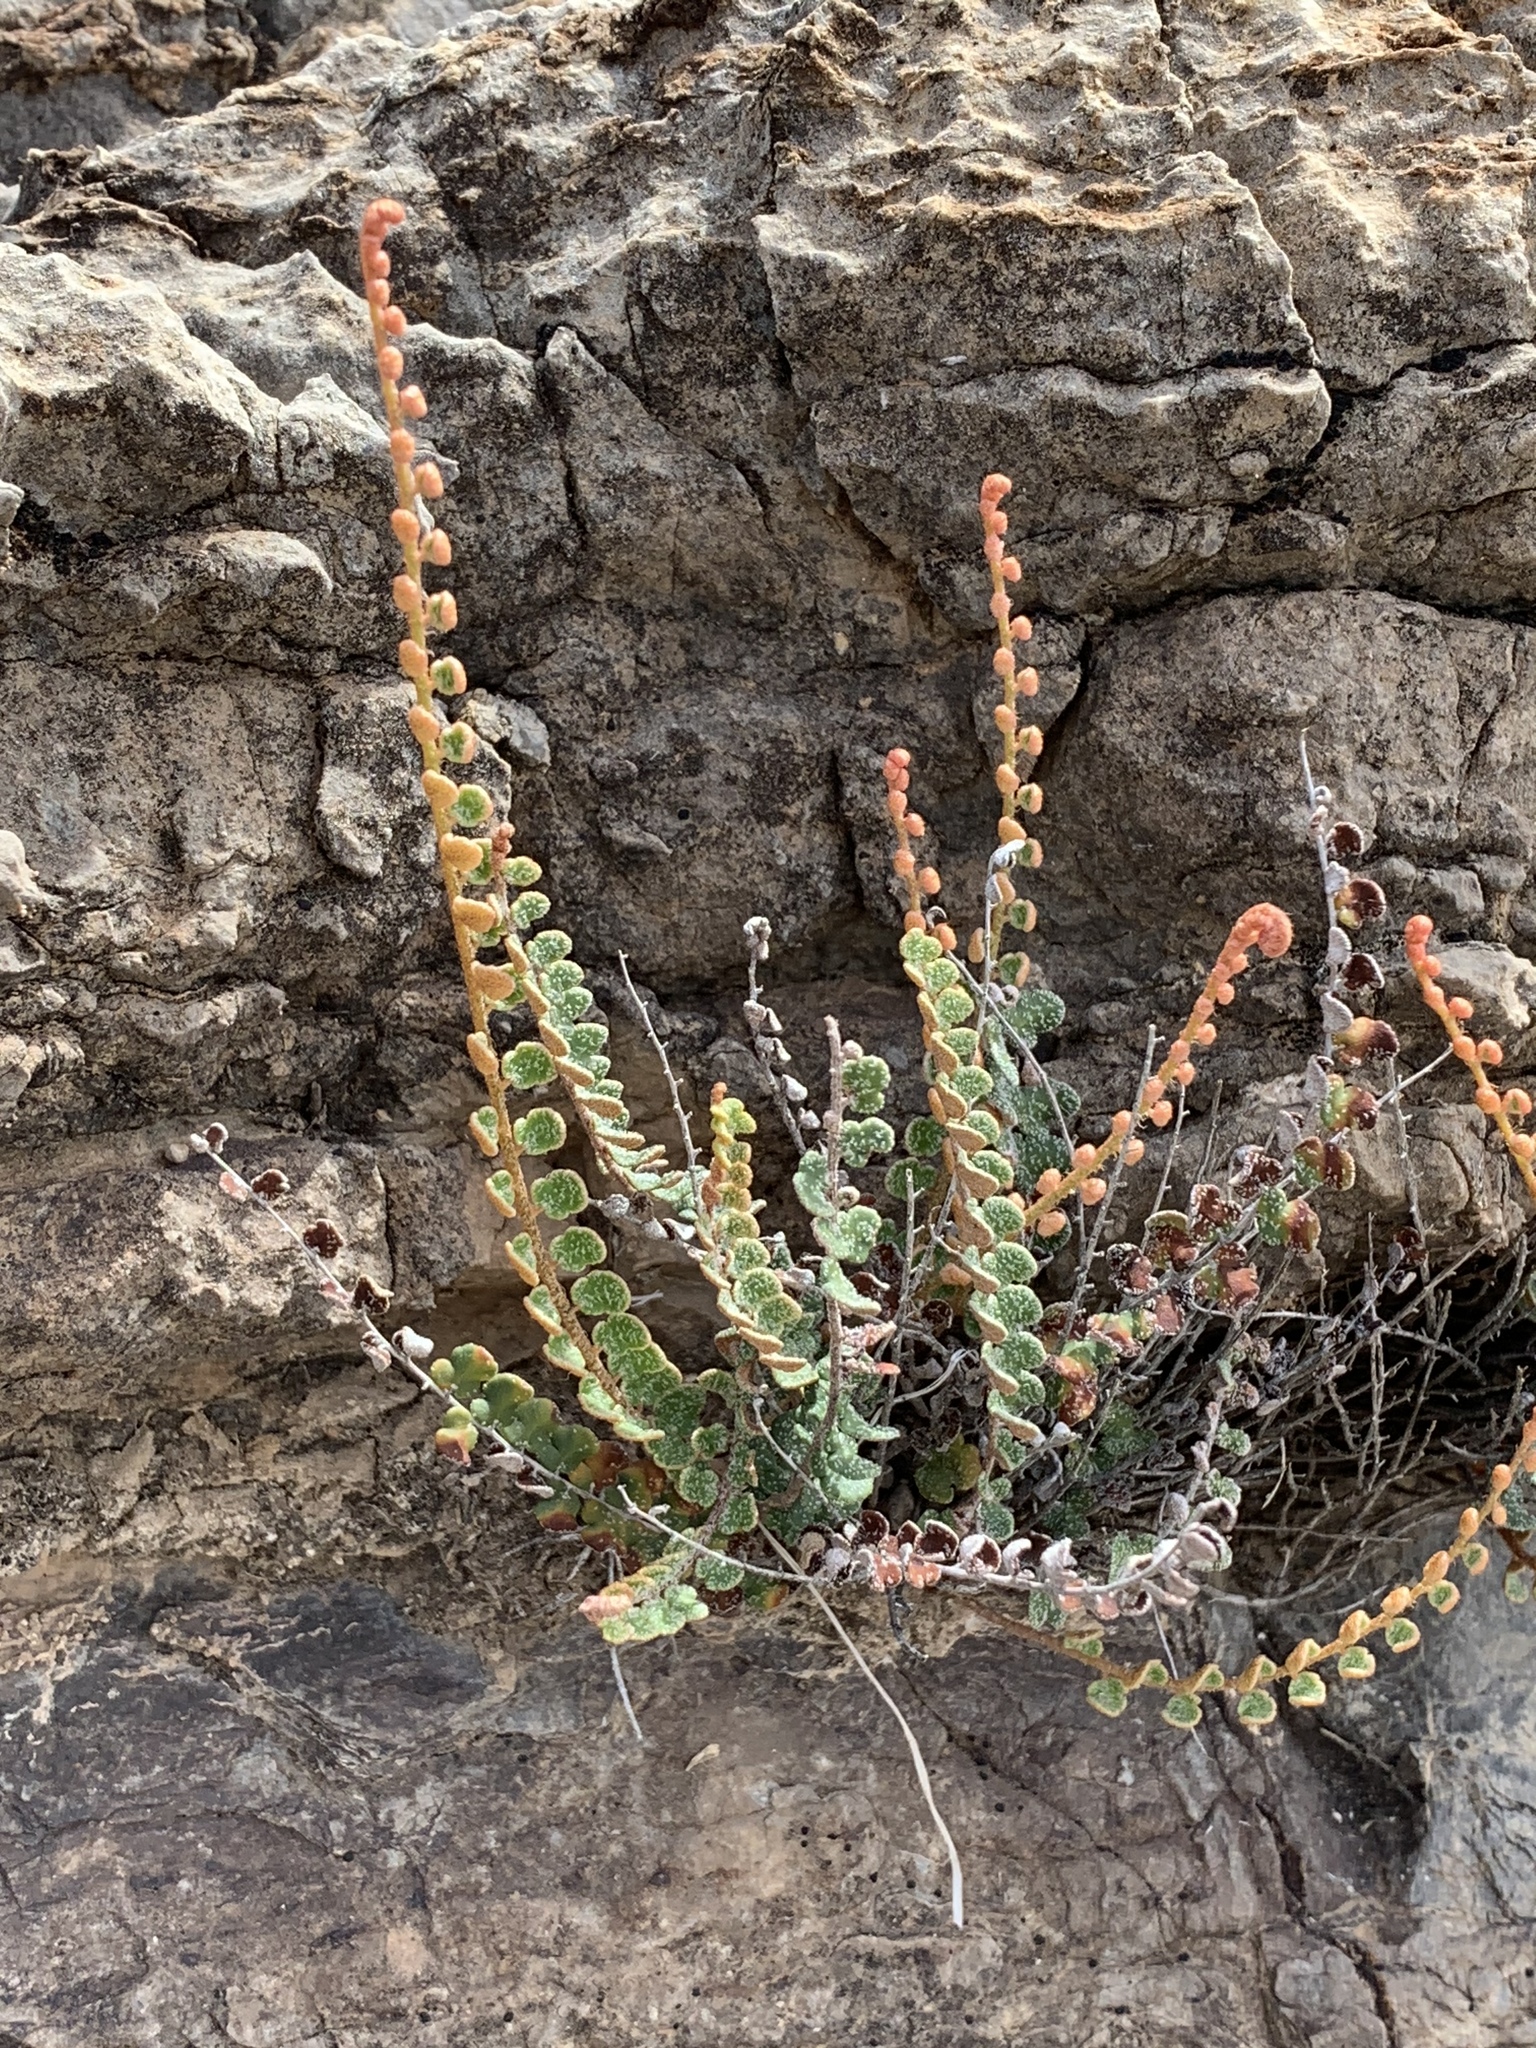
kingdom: Plantae
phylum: Tracheophyta
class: Polypodiopsida
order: Polypodiales
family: Pteridaceae
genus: Astrolepis
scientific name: Astrolepis cochisensis
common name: Scaly cloak fern
